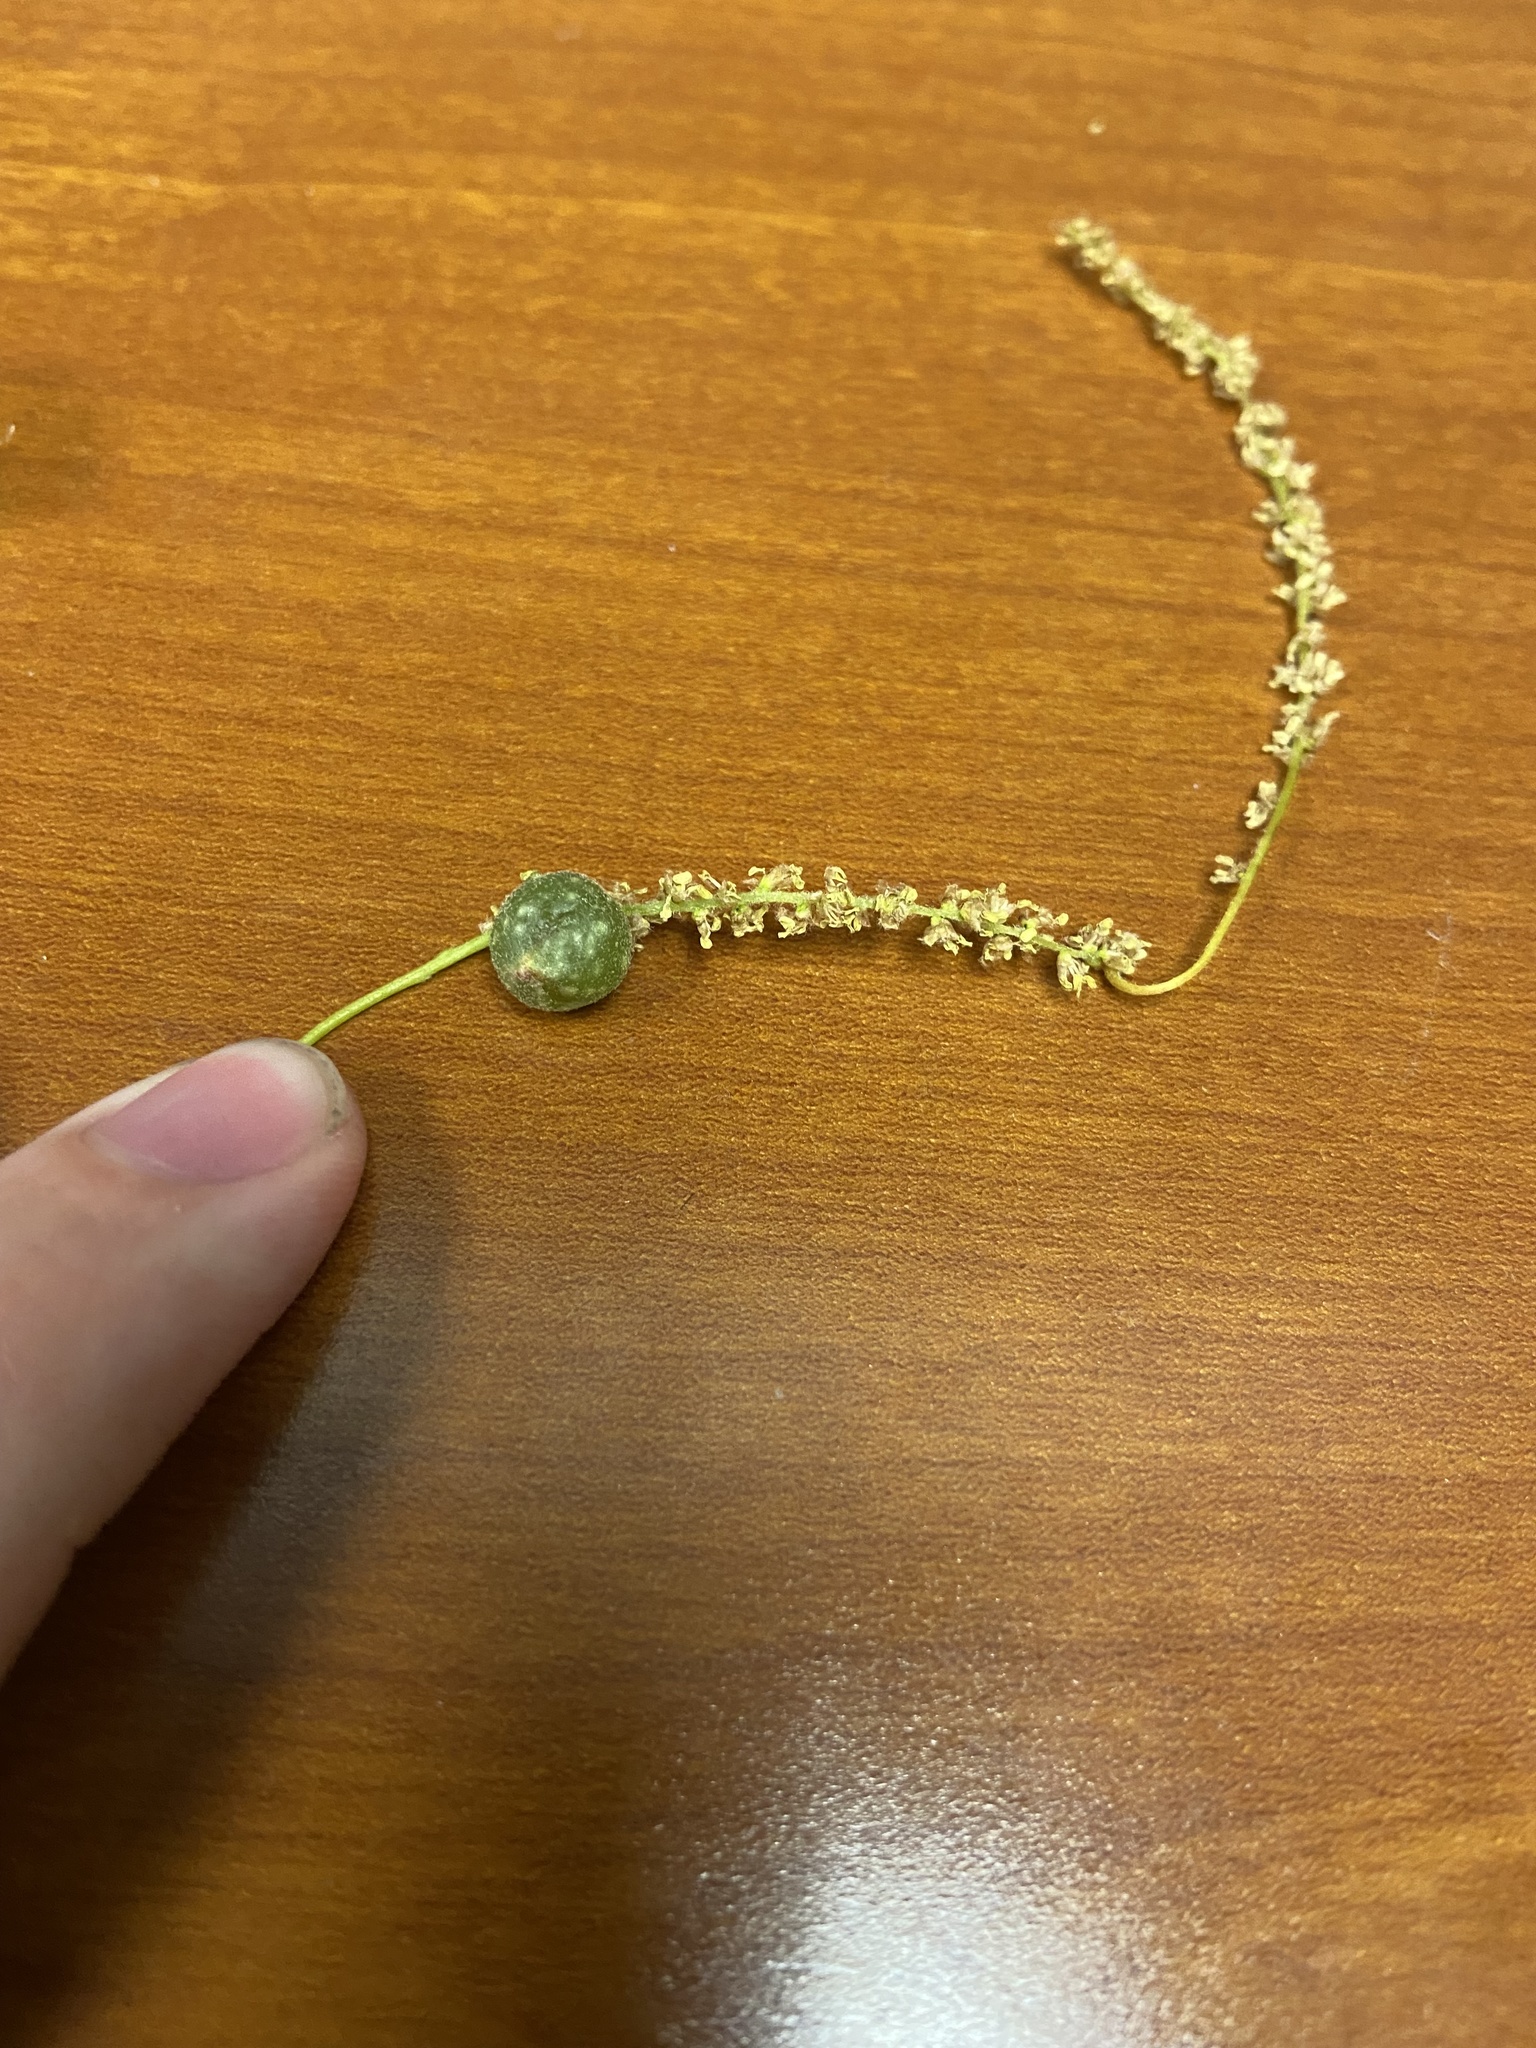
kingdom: Animalia
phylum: Arthropoda
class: Insecta
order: Hymenoptera
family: Cynipidae
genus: Dryocosmus
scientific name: Dryocosmus quercuspalustris
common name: Succulent oak gall wasp
